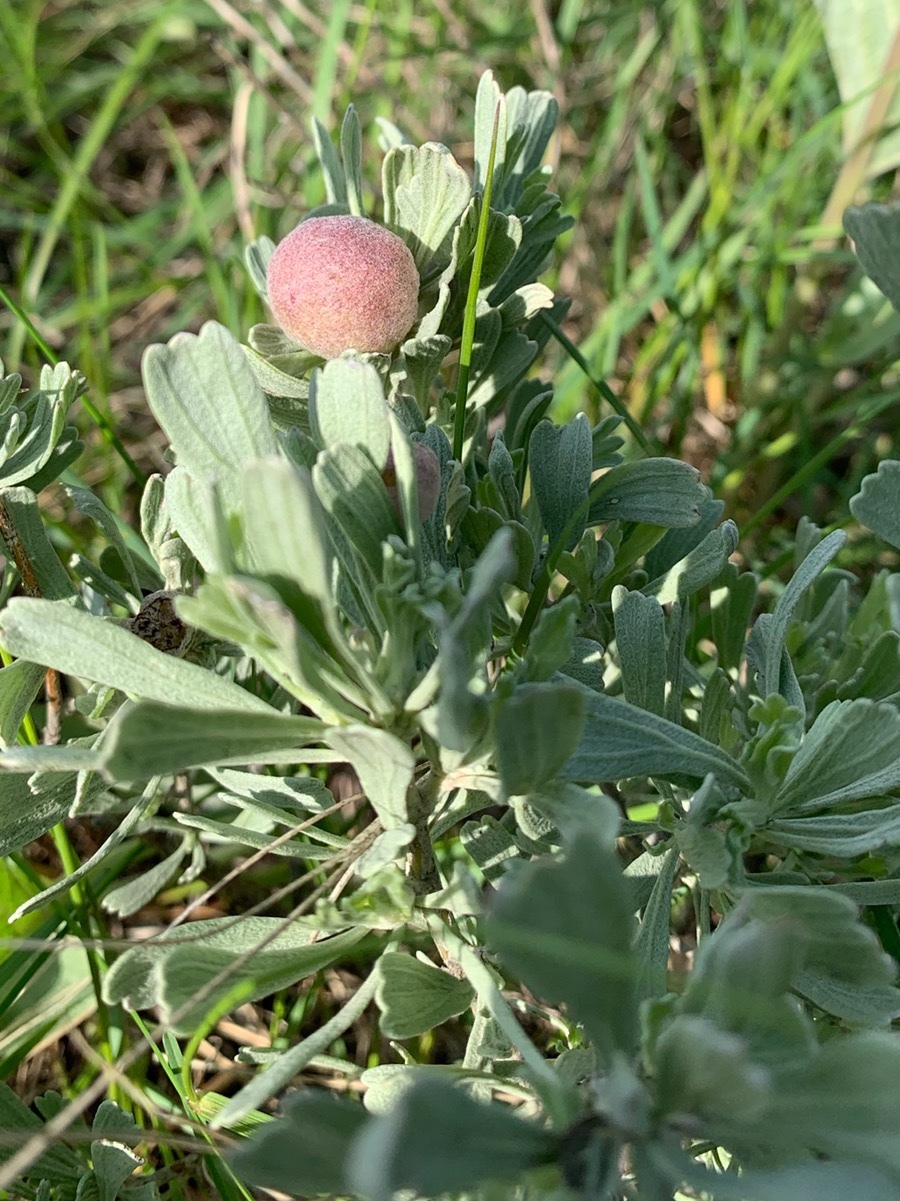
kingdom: Plantae
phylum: Tracheophyta
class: Magnoliopsida
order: Asterales
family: Asteraceae
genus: Artemisia
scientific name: Artemisia tridentata
